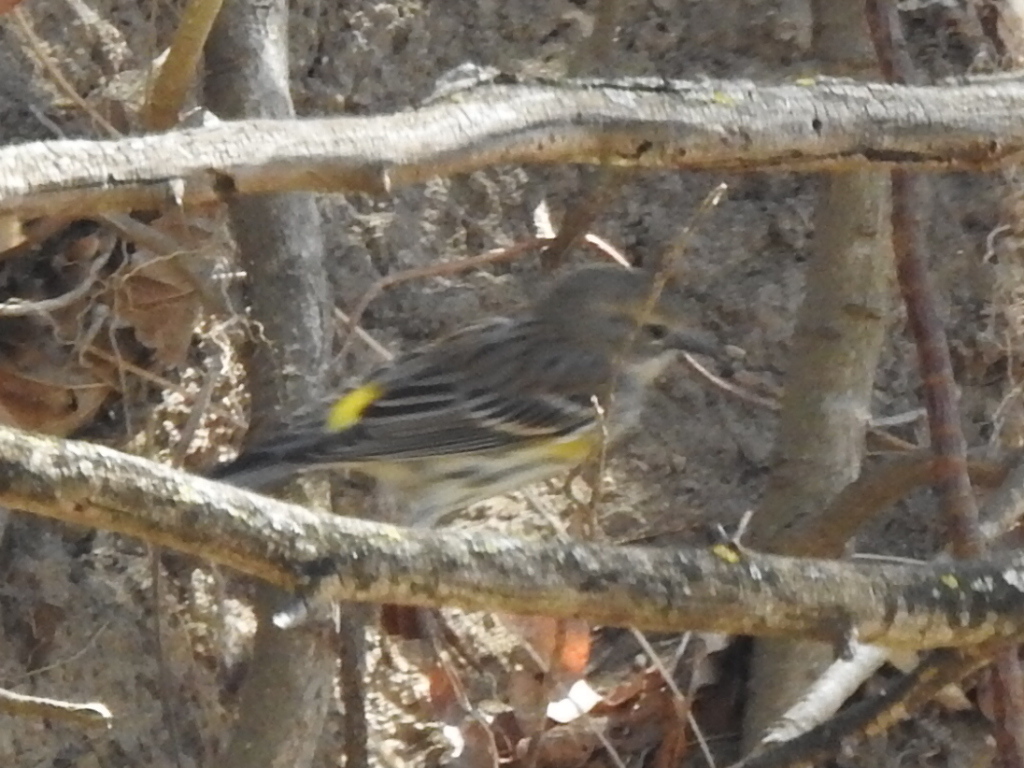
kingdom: Animalia
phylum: Chordata
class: Aves
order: Passeriformes
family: Parulidae
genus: Setophaga
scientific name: Setophaga coronata
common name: Myrtle warbler
